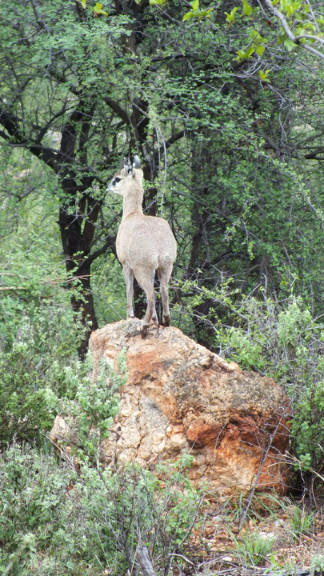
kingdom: Animalia
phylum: Chordata
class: Mammalia
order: Artiodactyla
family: Bovidae
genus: Oreotragus
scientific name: Oreotragus oreotragus
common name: Klipspringer
